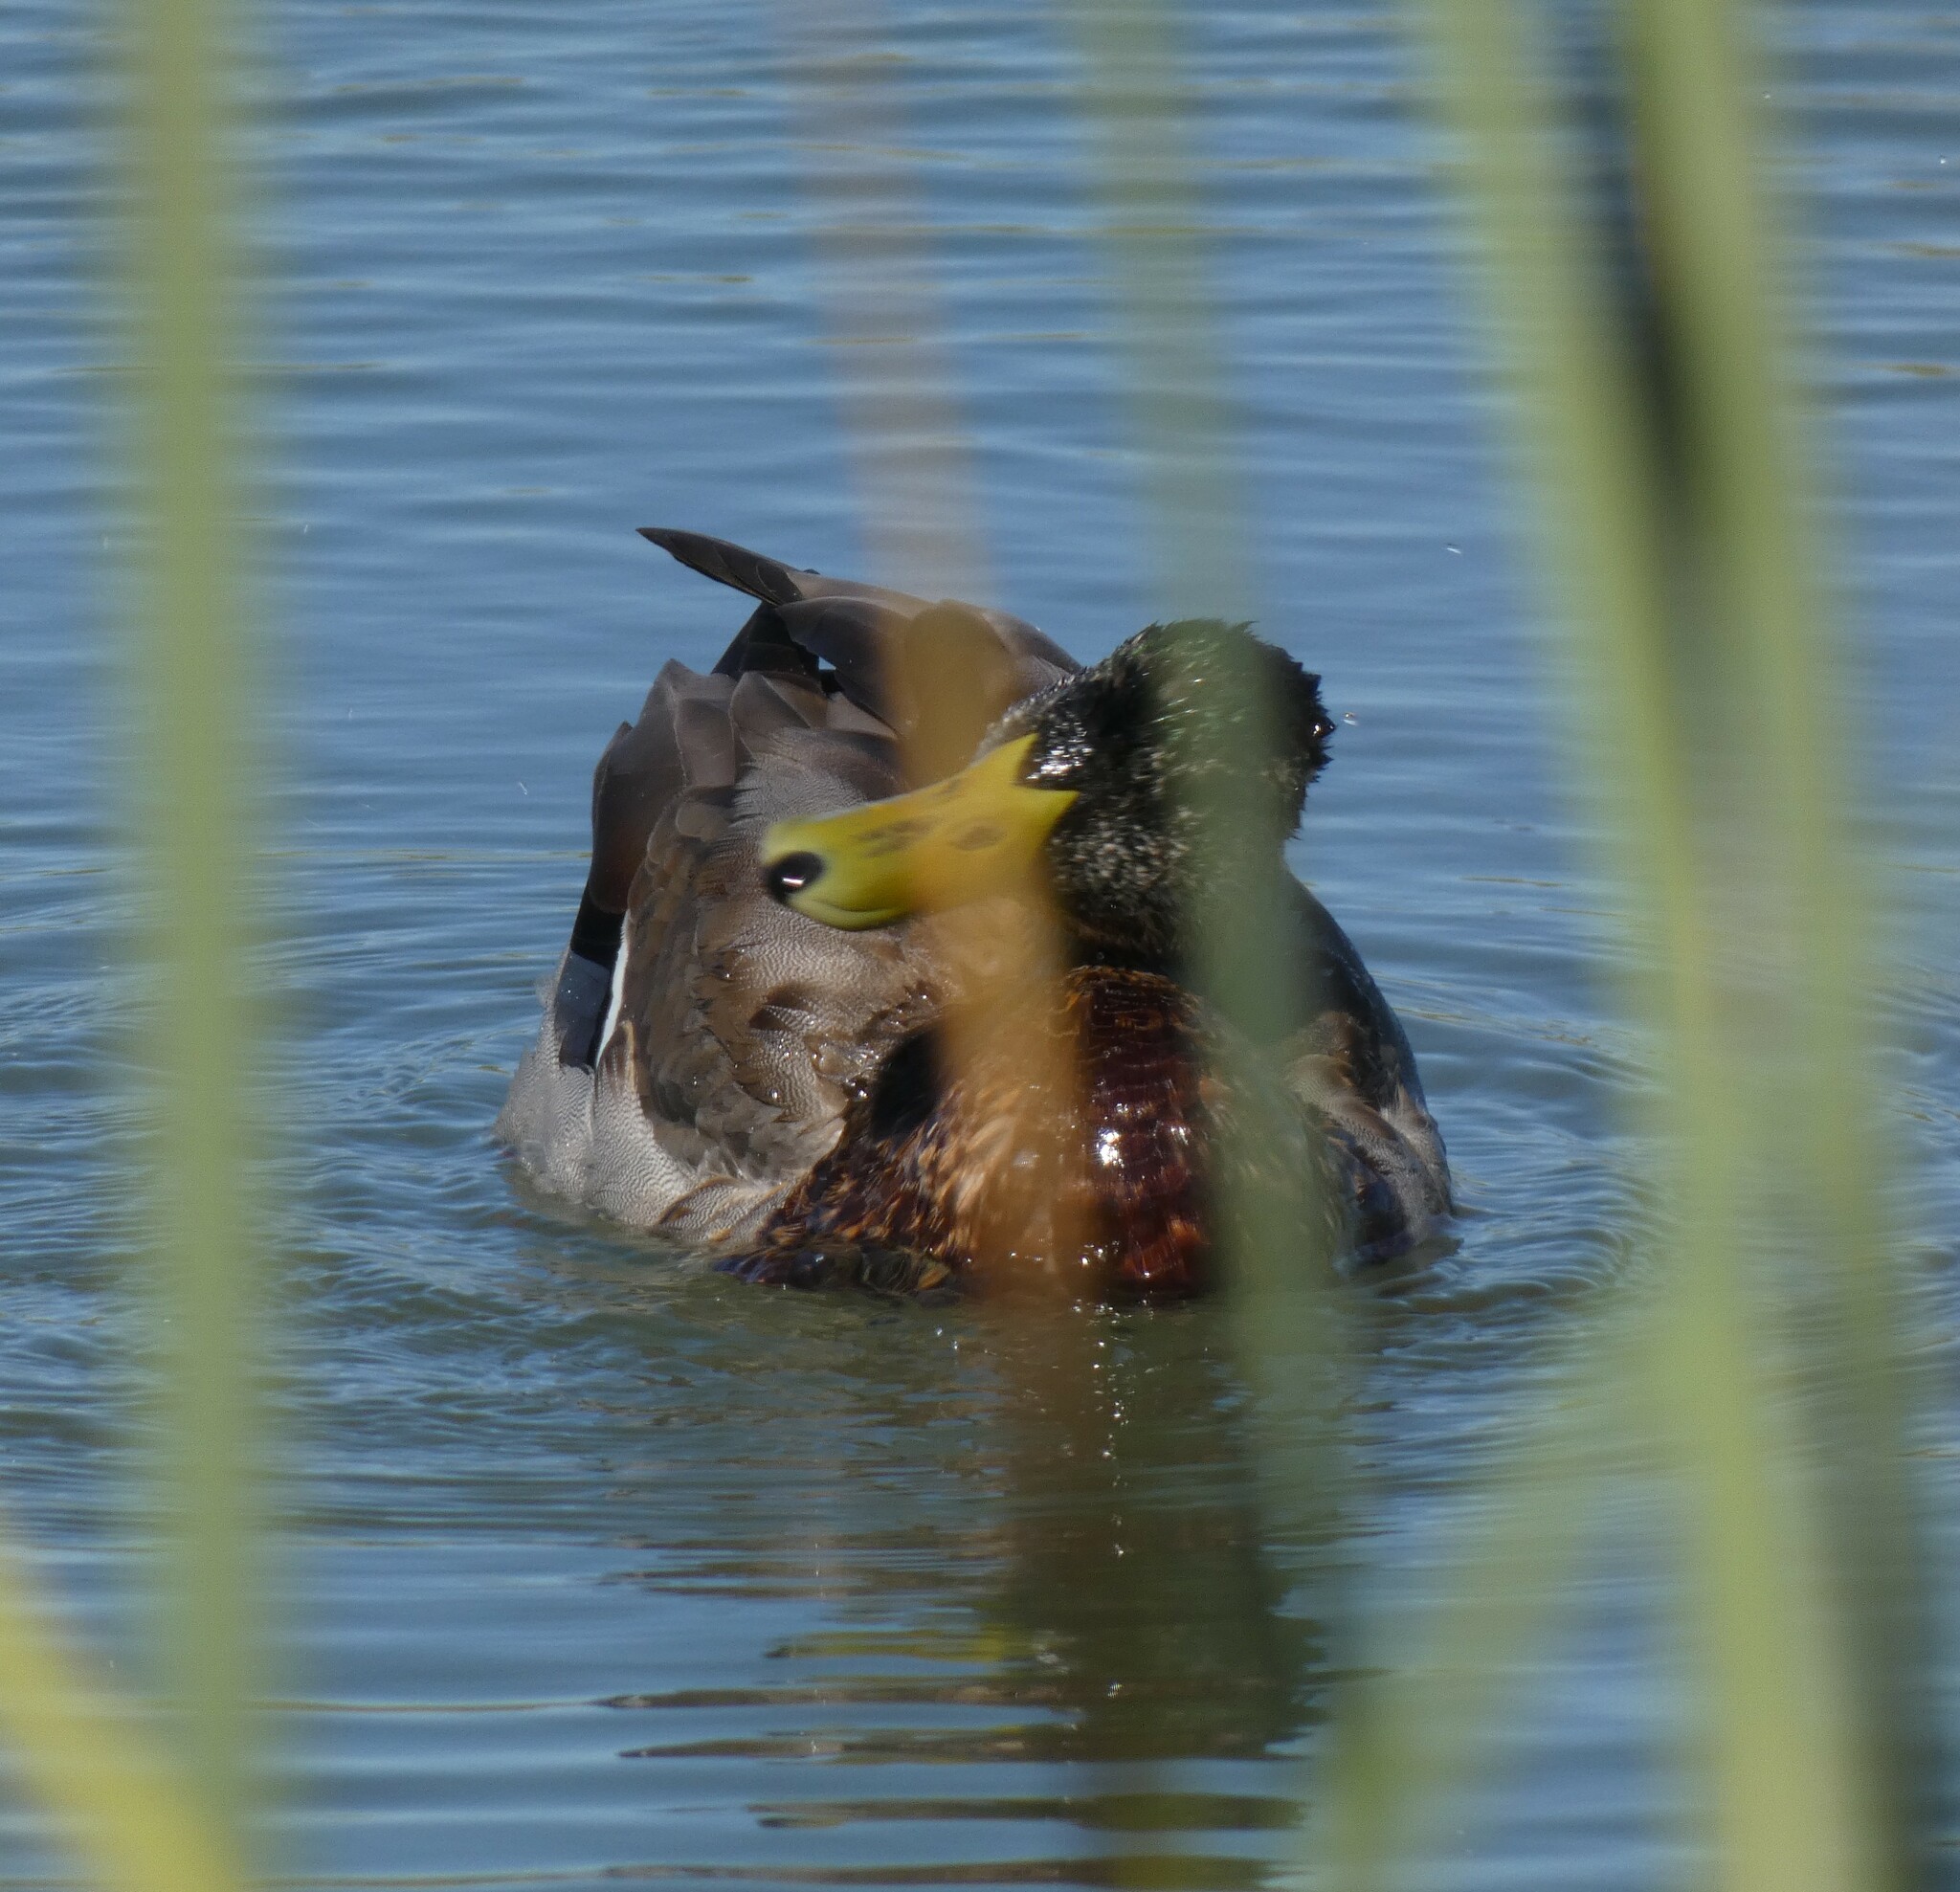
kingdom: Animalia
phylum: Chordata
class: Aves
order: Anseriformes
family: Anatidae
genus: Anas
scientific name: Anas platyrhynchos
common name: Mallard
